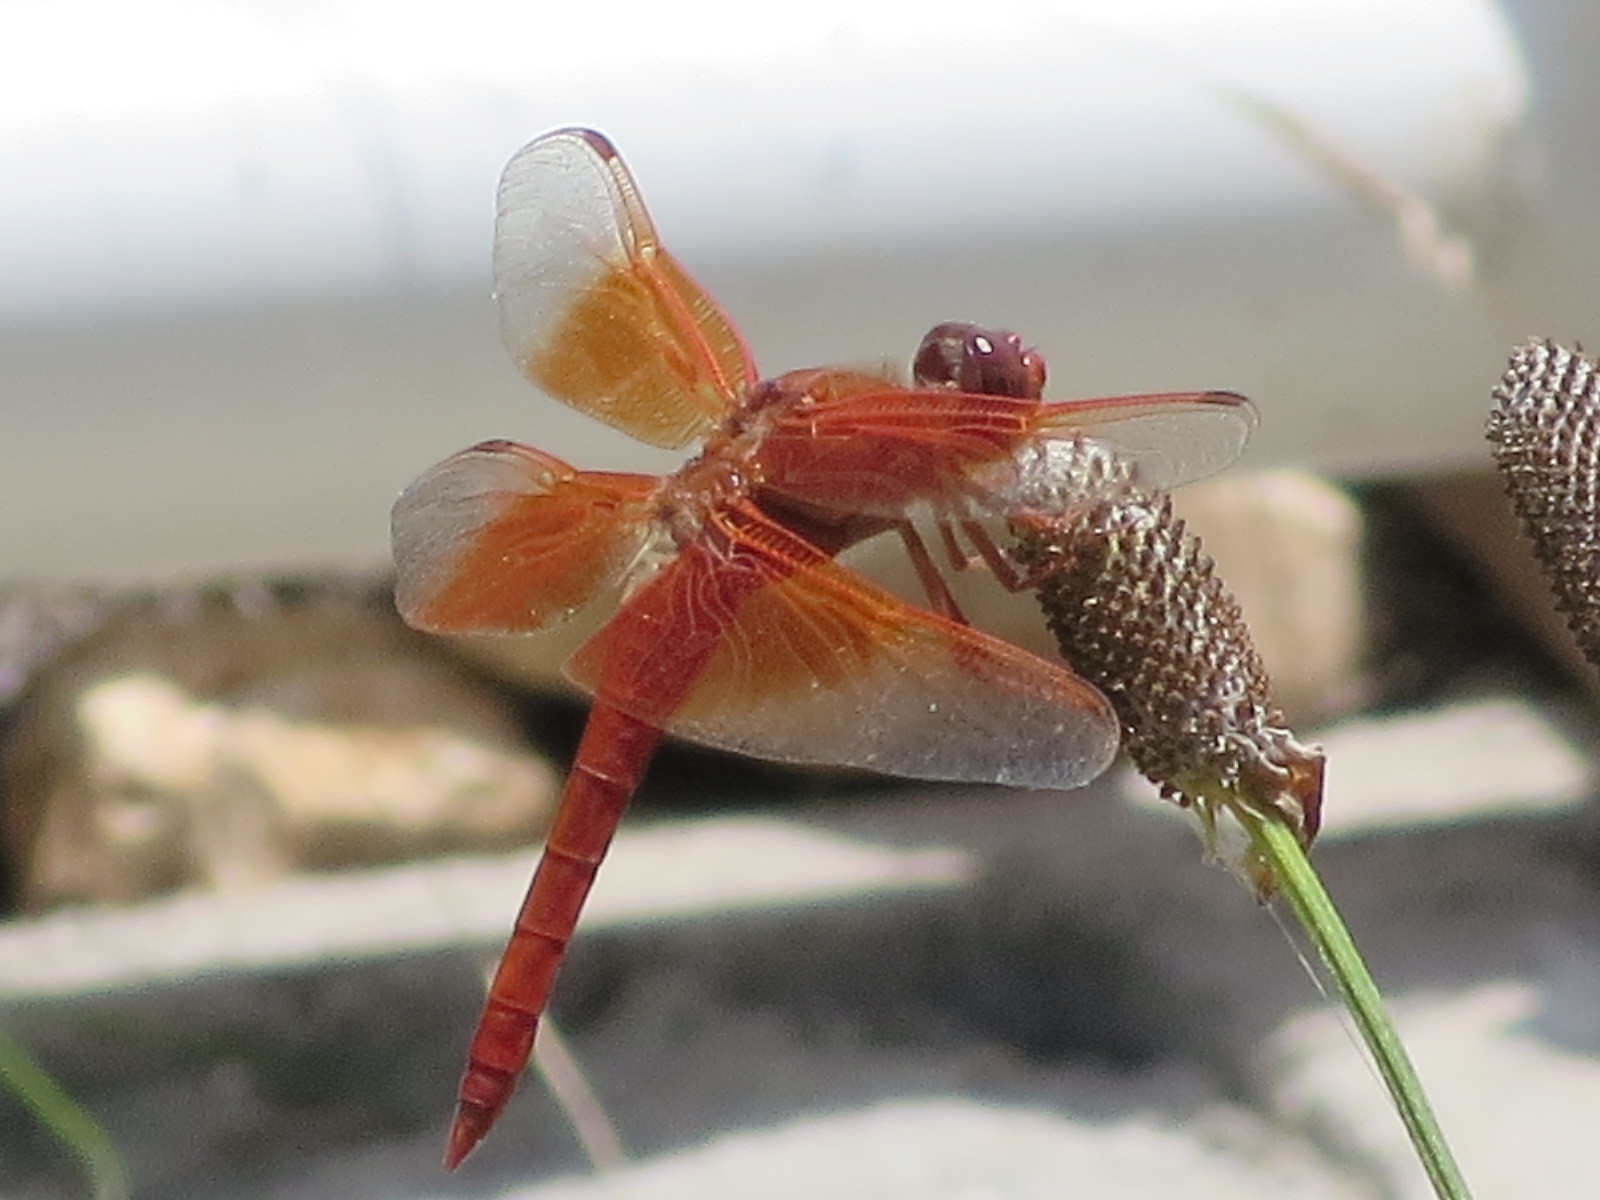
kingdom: Animalia
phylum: Arthropoda
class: Insecta
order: Odonata
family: Libellulidae
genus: Libellula
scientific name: Libellula saturata
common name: Flame skimmer
